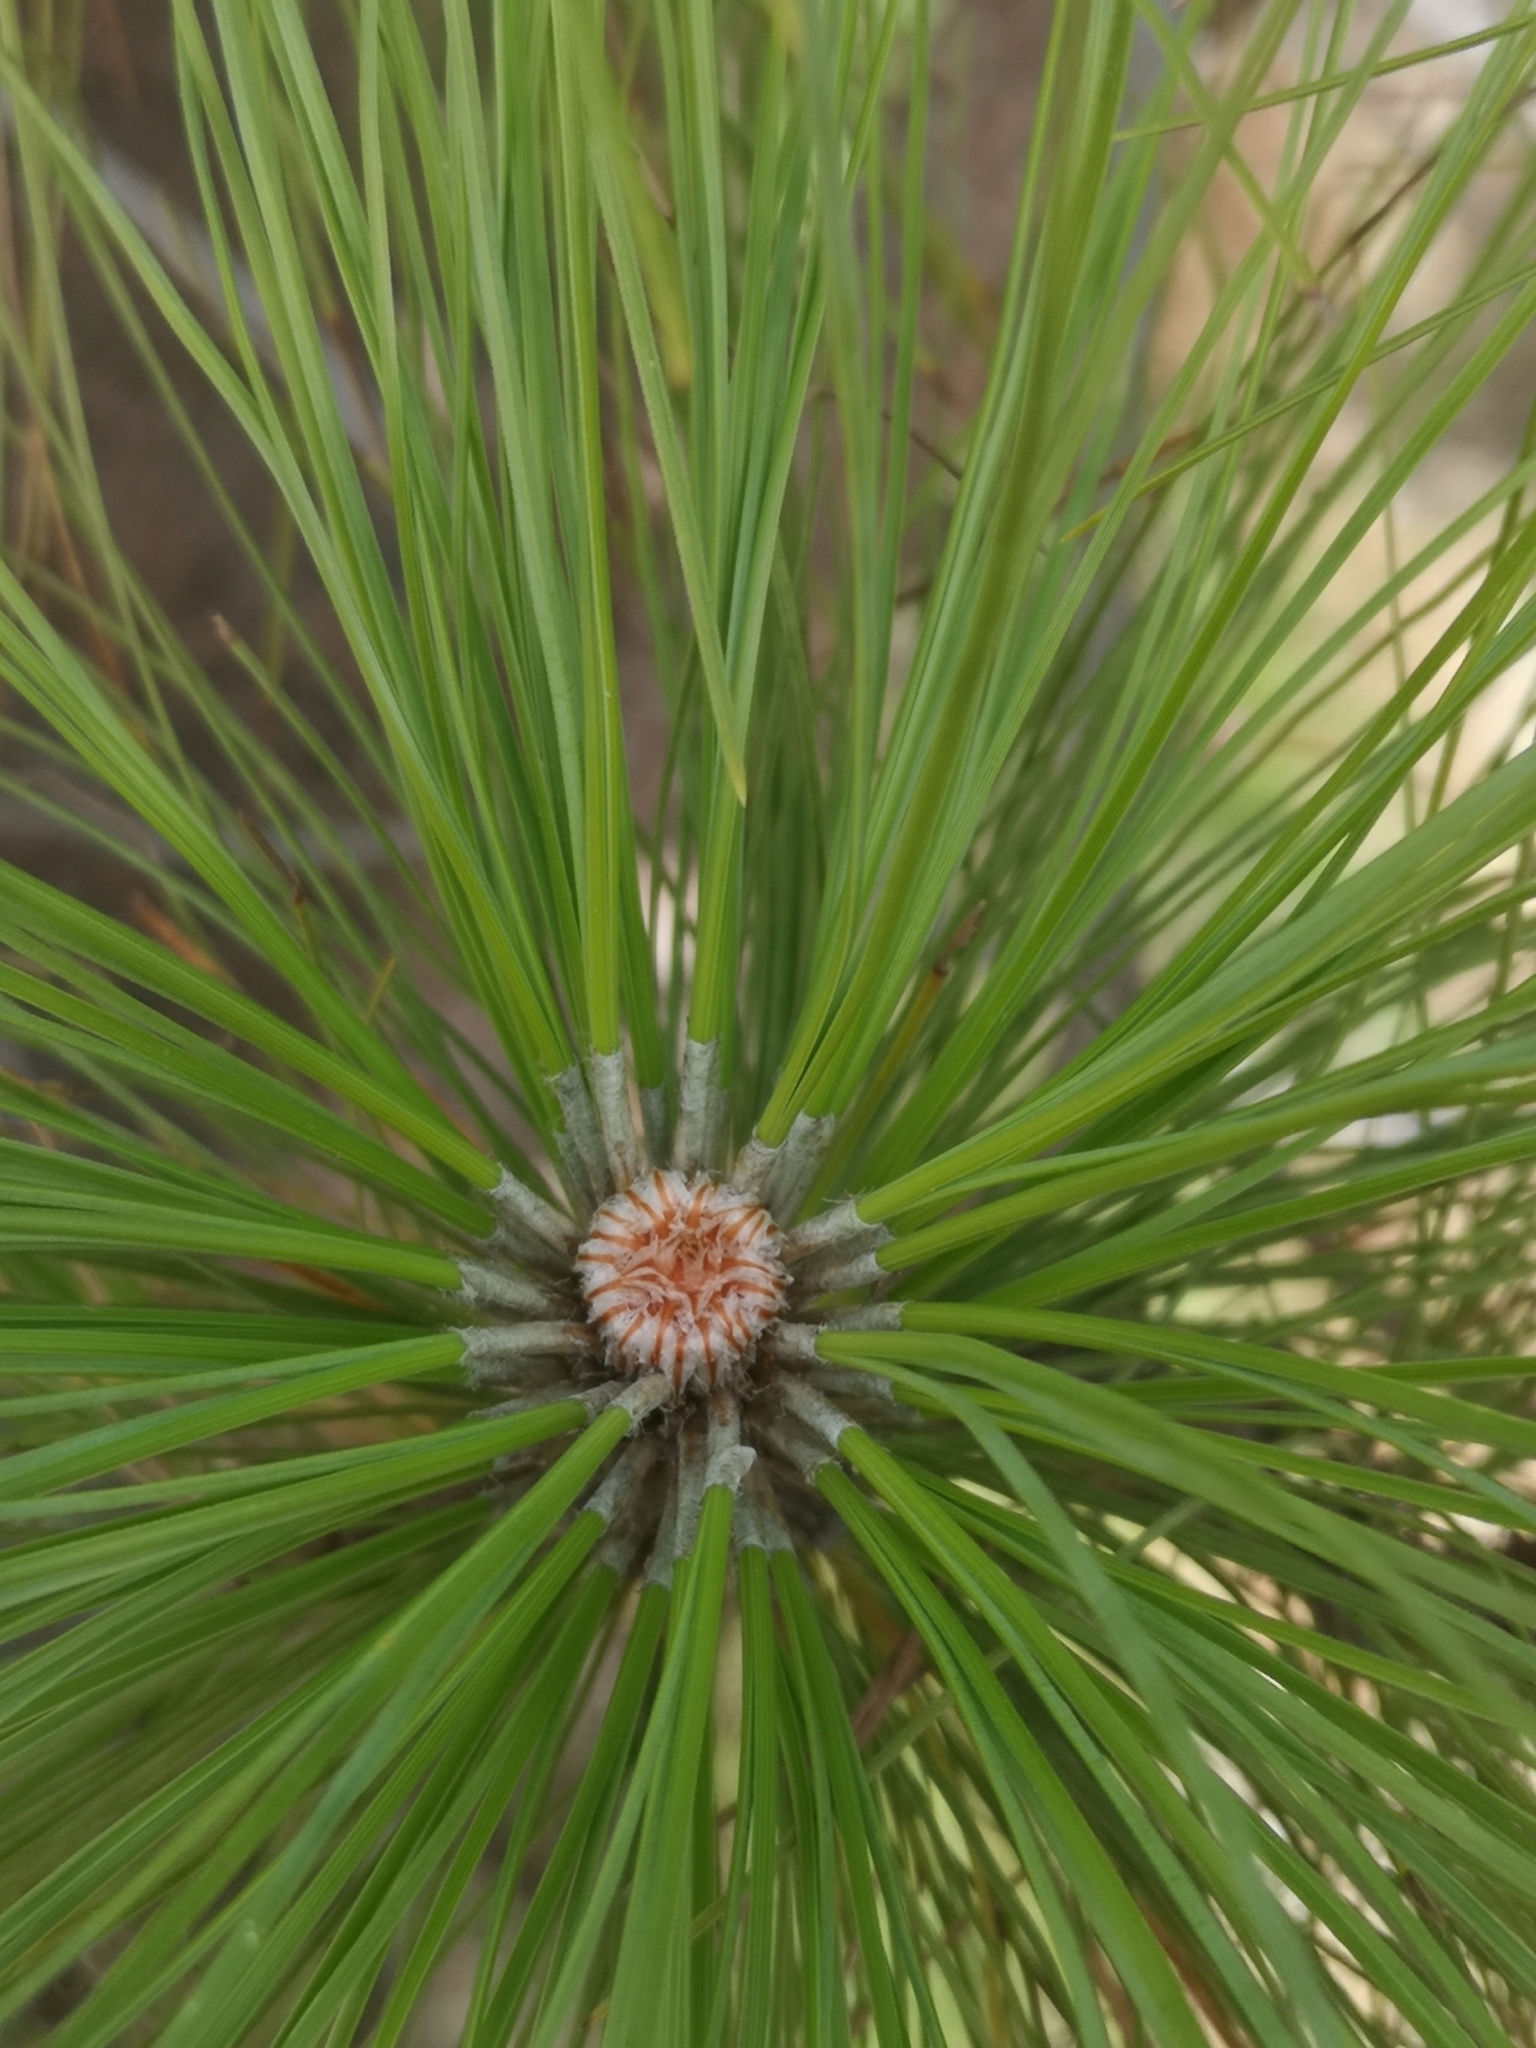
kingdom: Plantae
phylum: Tracheophyta
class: Pinopsida
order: Pinales
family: Pinaceae
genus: Pinus
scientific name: Pinus canariensis
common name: Canary islands pine
